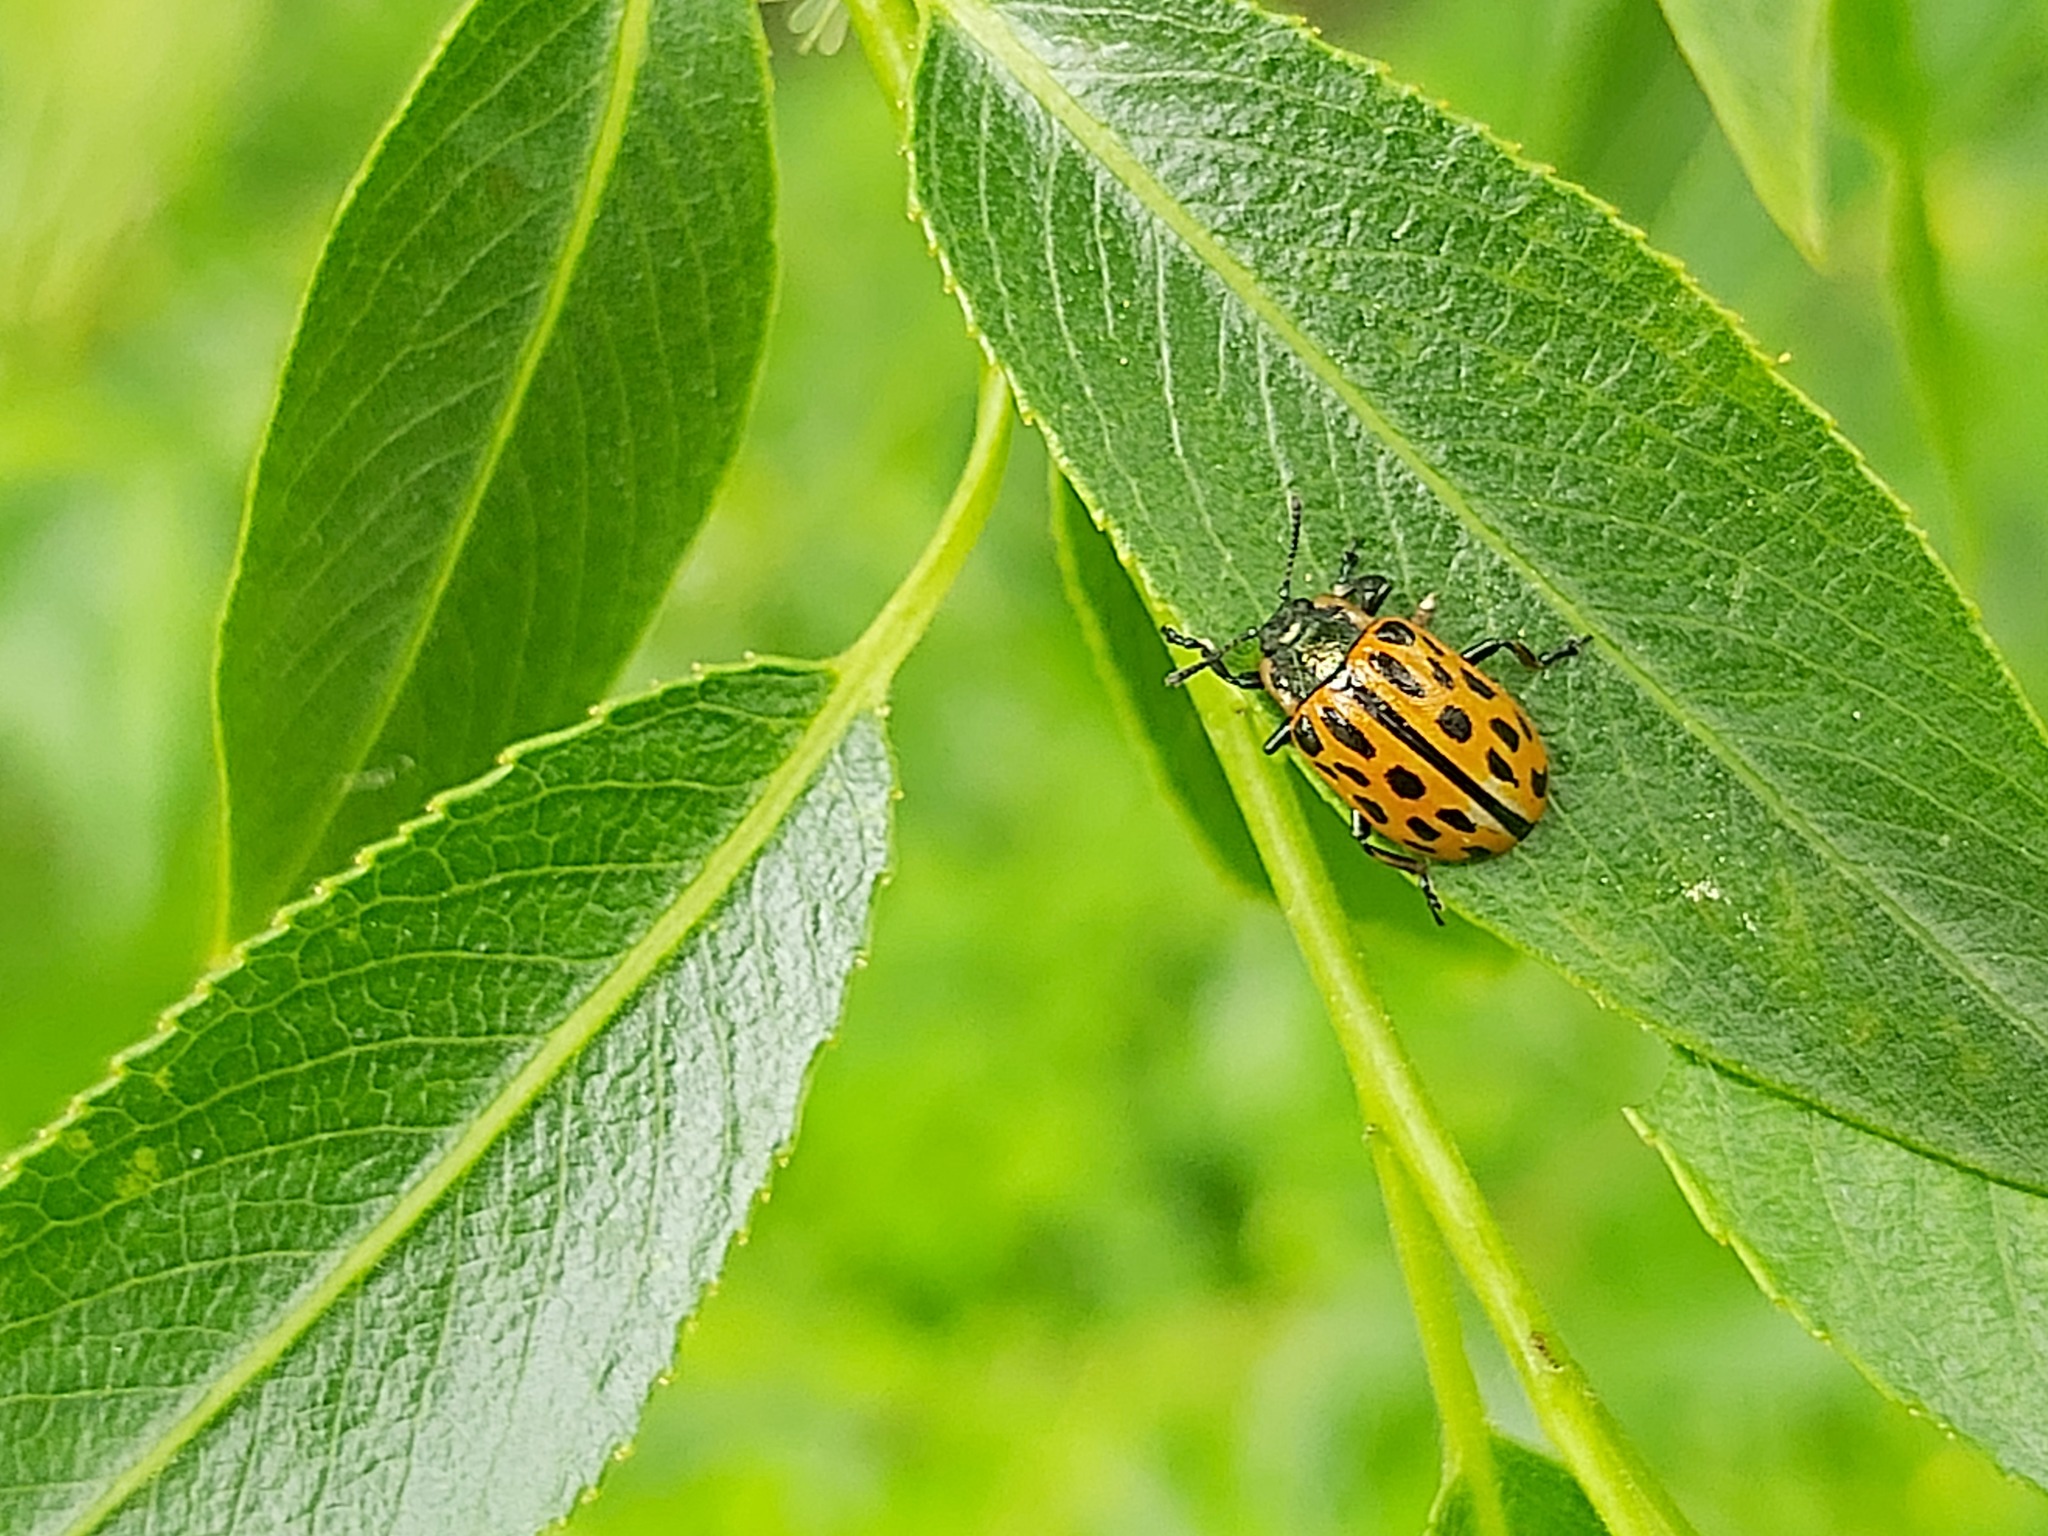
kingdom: Animalia
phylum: Arthropoda
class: Insecta
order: Coleoptera
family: Chrysomelidae
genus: Chrysomela
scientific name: Chrysomela vigintipunctata
